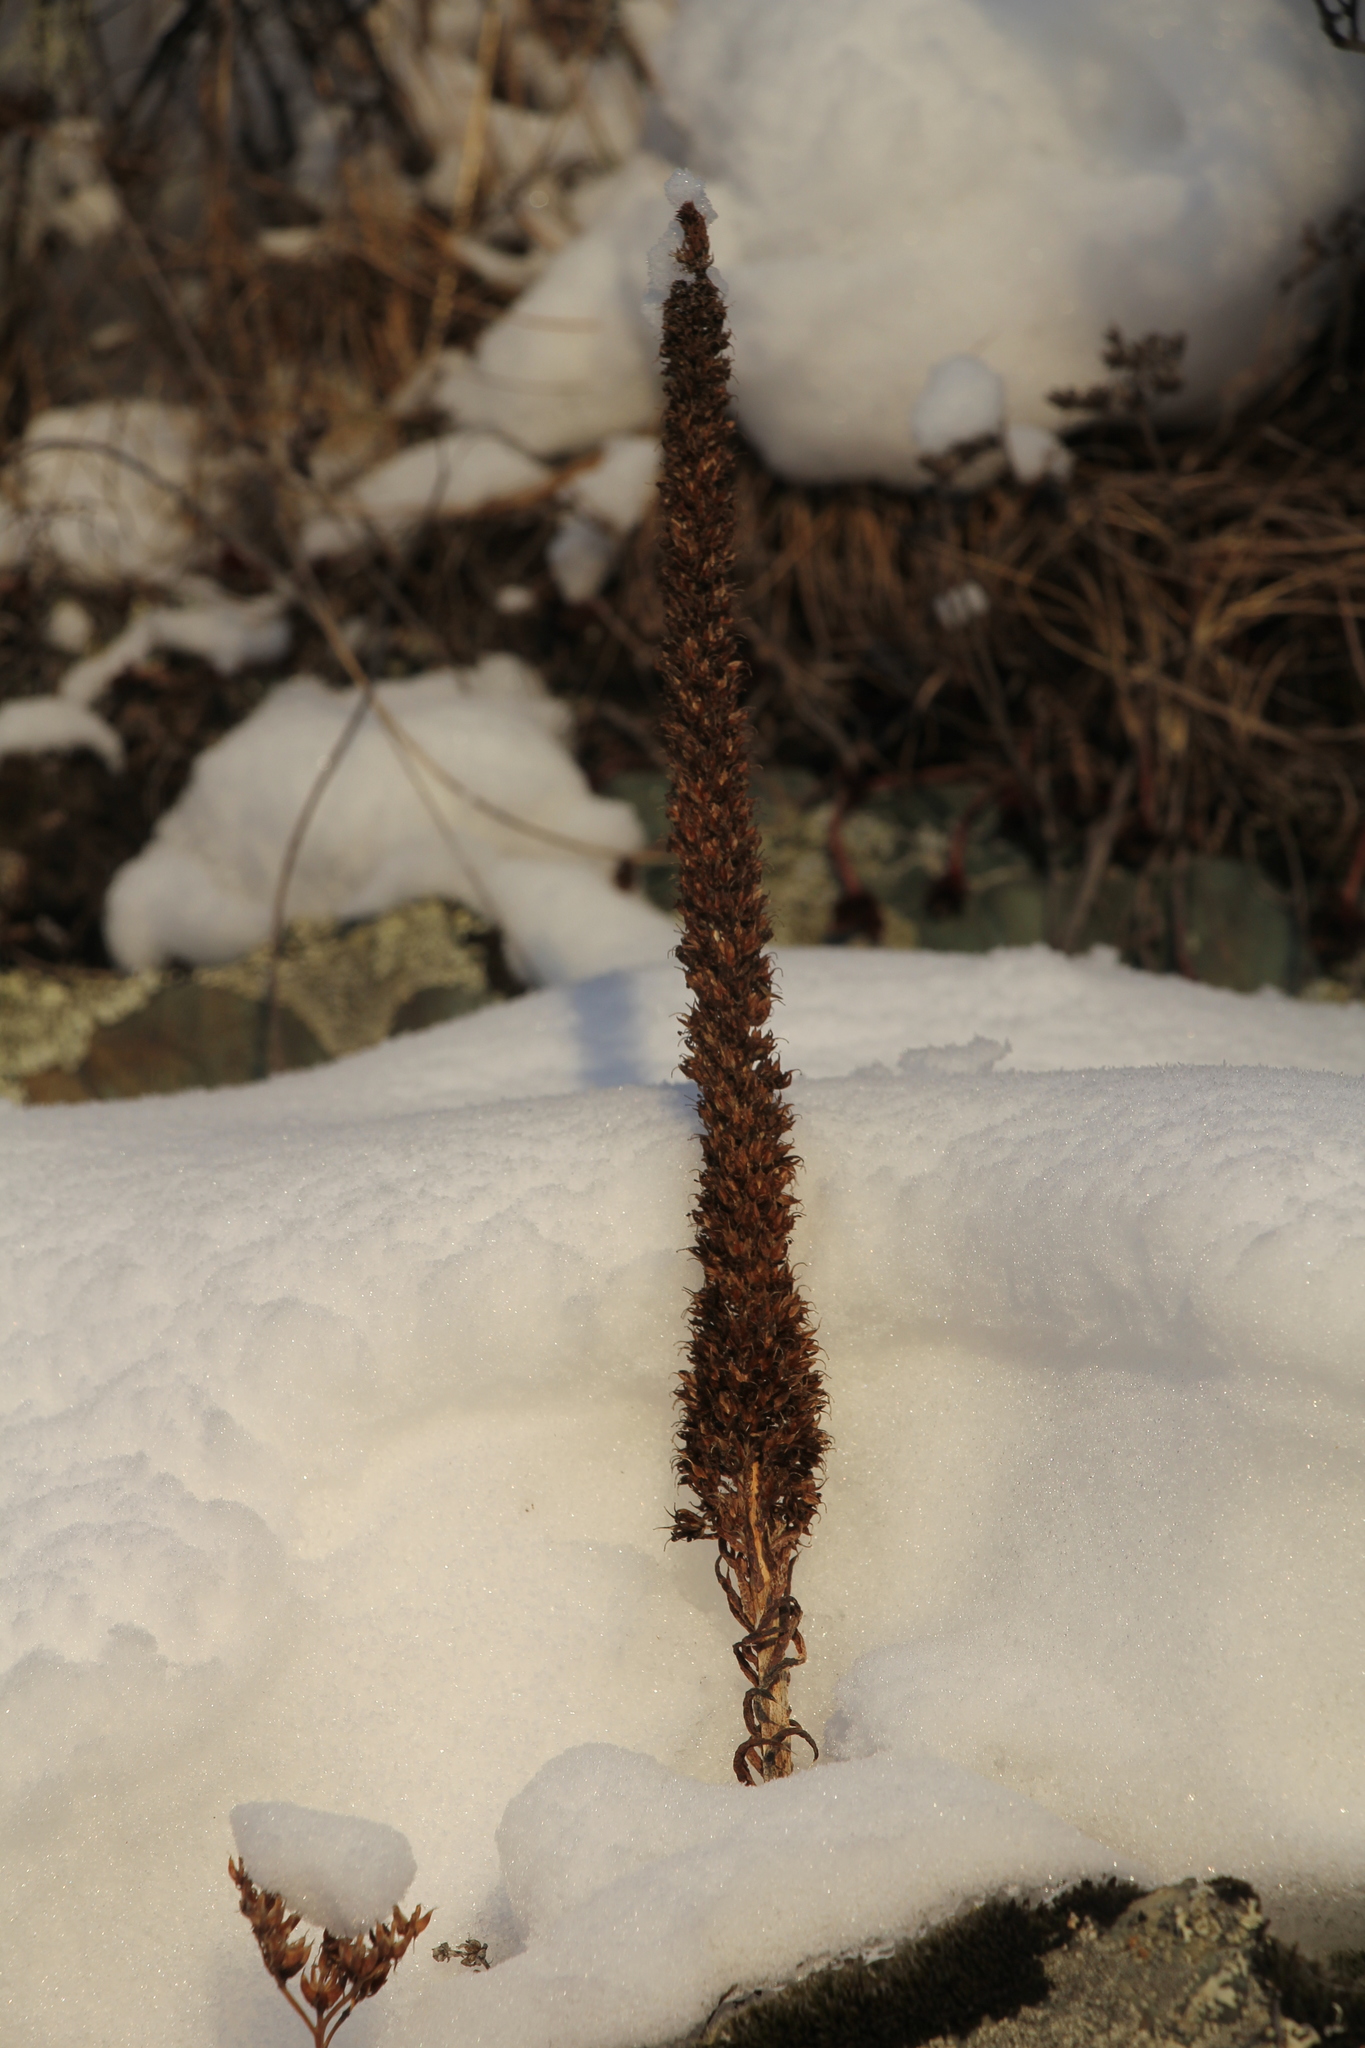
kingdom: Plantae
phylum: Tracheophyta
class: Magnoliopsida
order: Saxifragales
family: Crassulaceae
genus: Orostachys
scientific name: Orostachys spinosa
